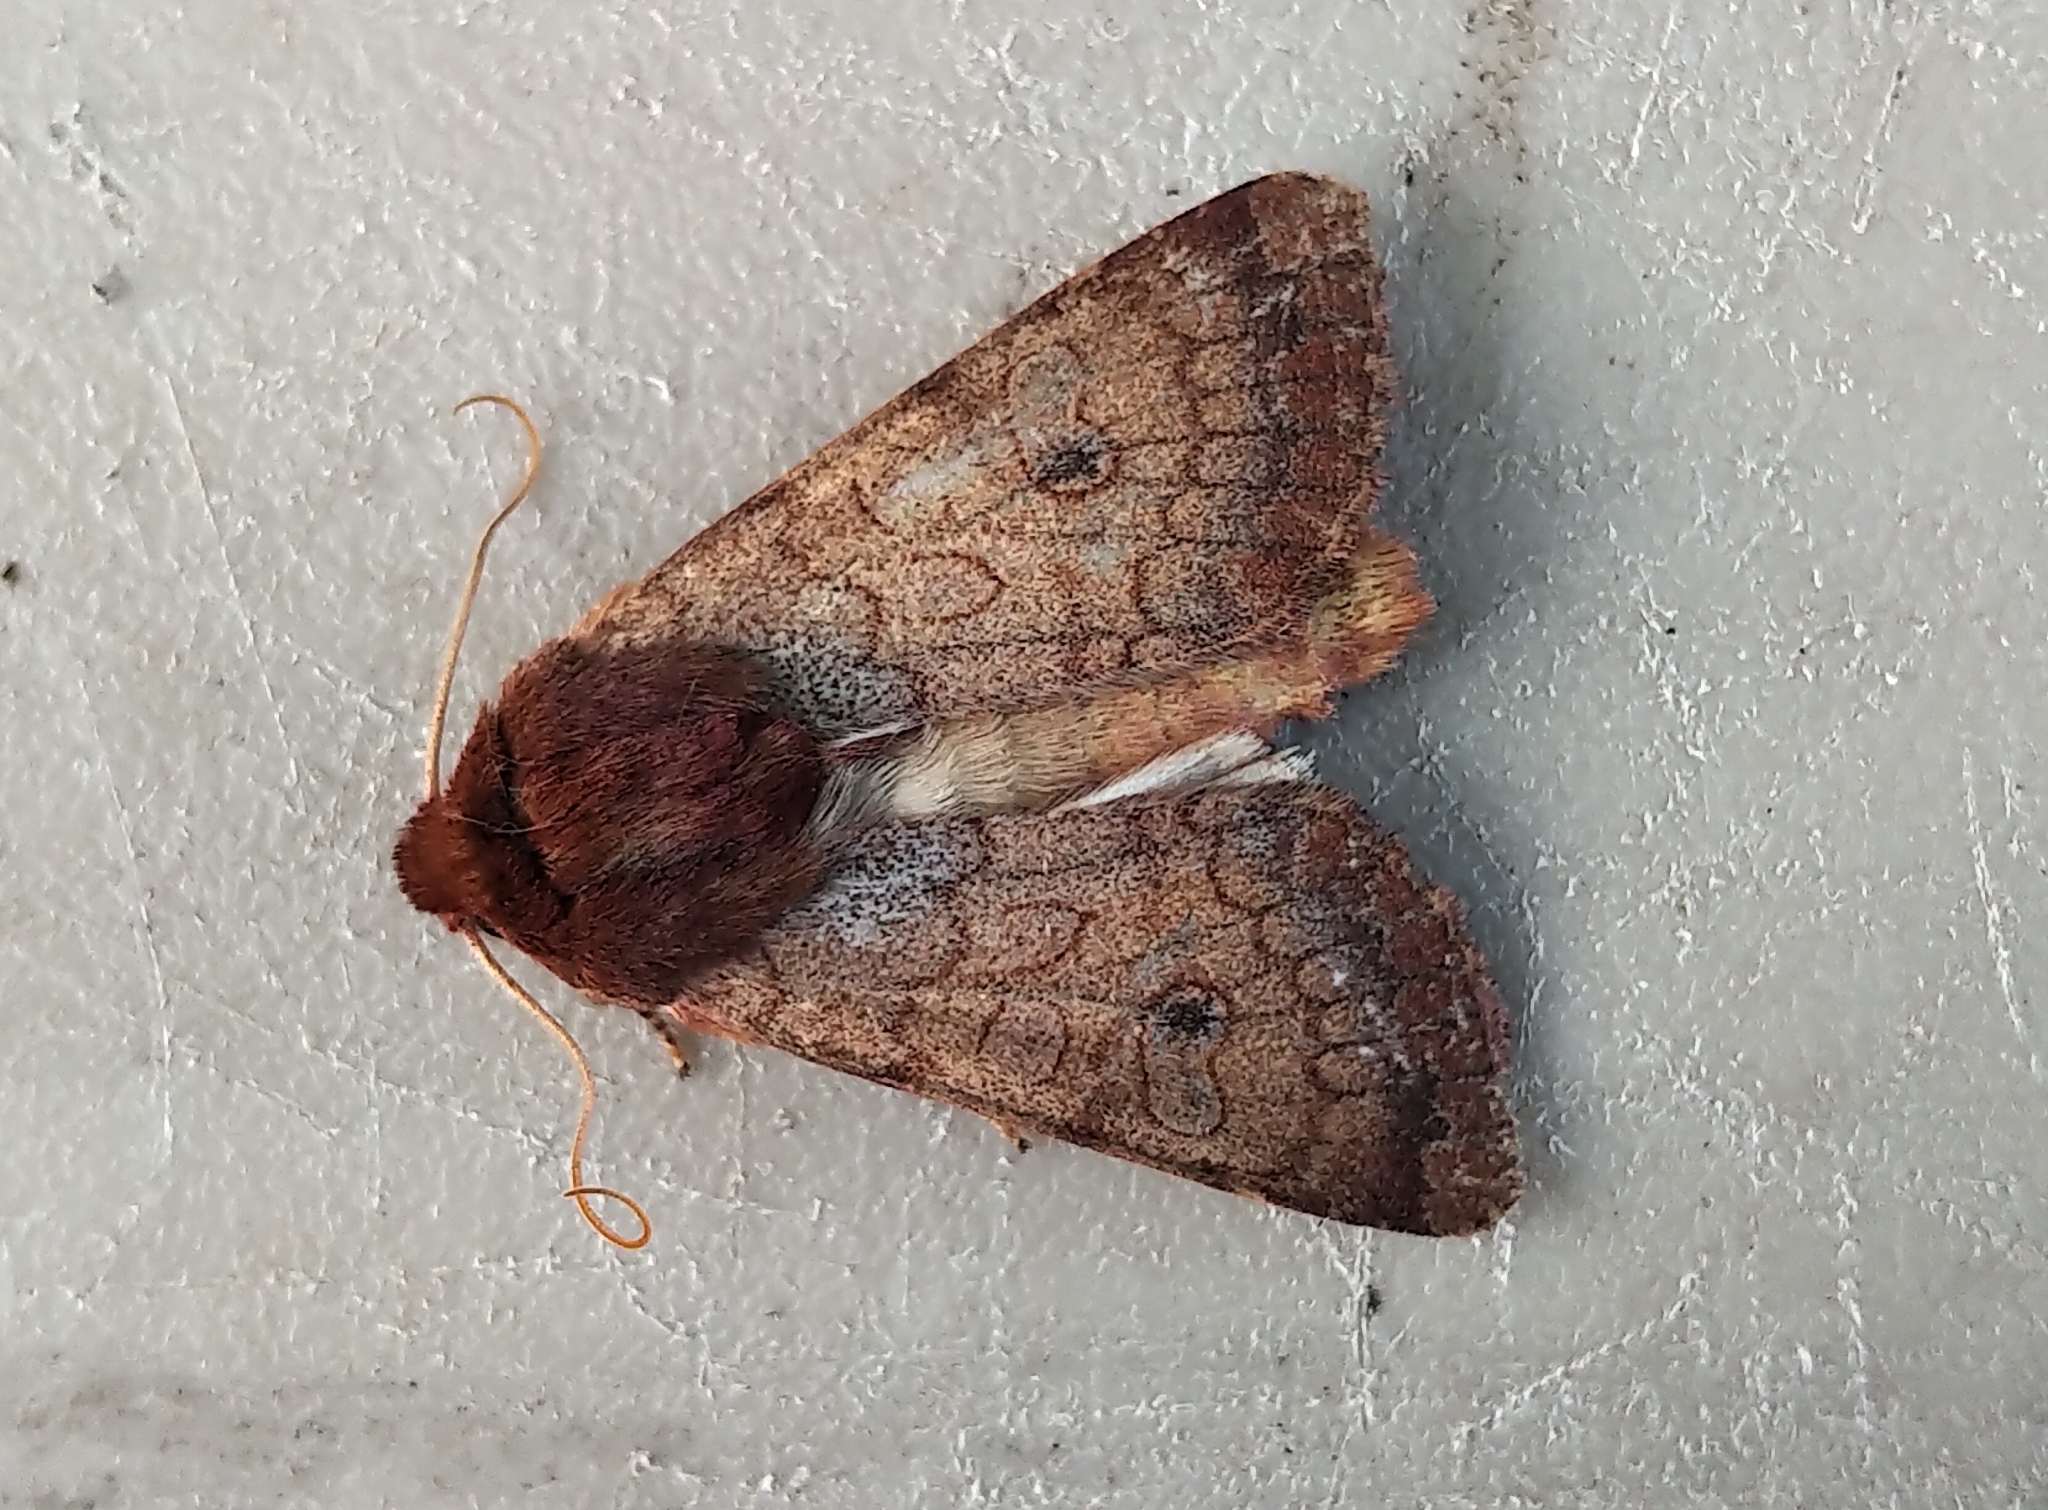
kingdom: Animalia
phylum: Arthropoda
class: Insecta
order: Lepidoptera
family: Noctuidae
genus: Sideridis
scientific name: Sideridis rosea
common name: Rosewing moth
